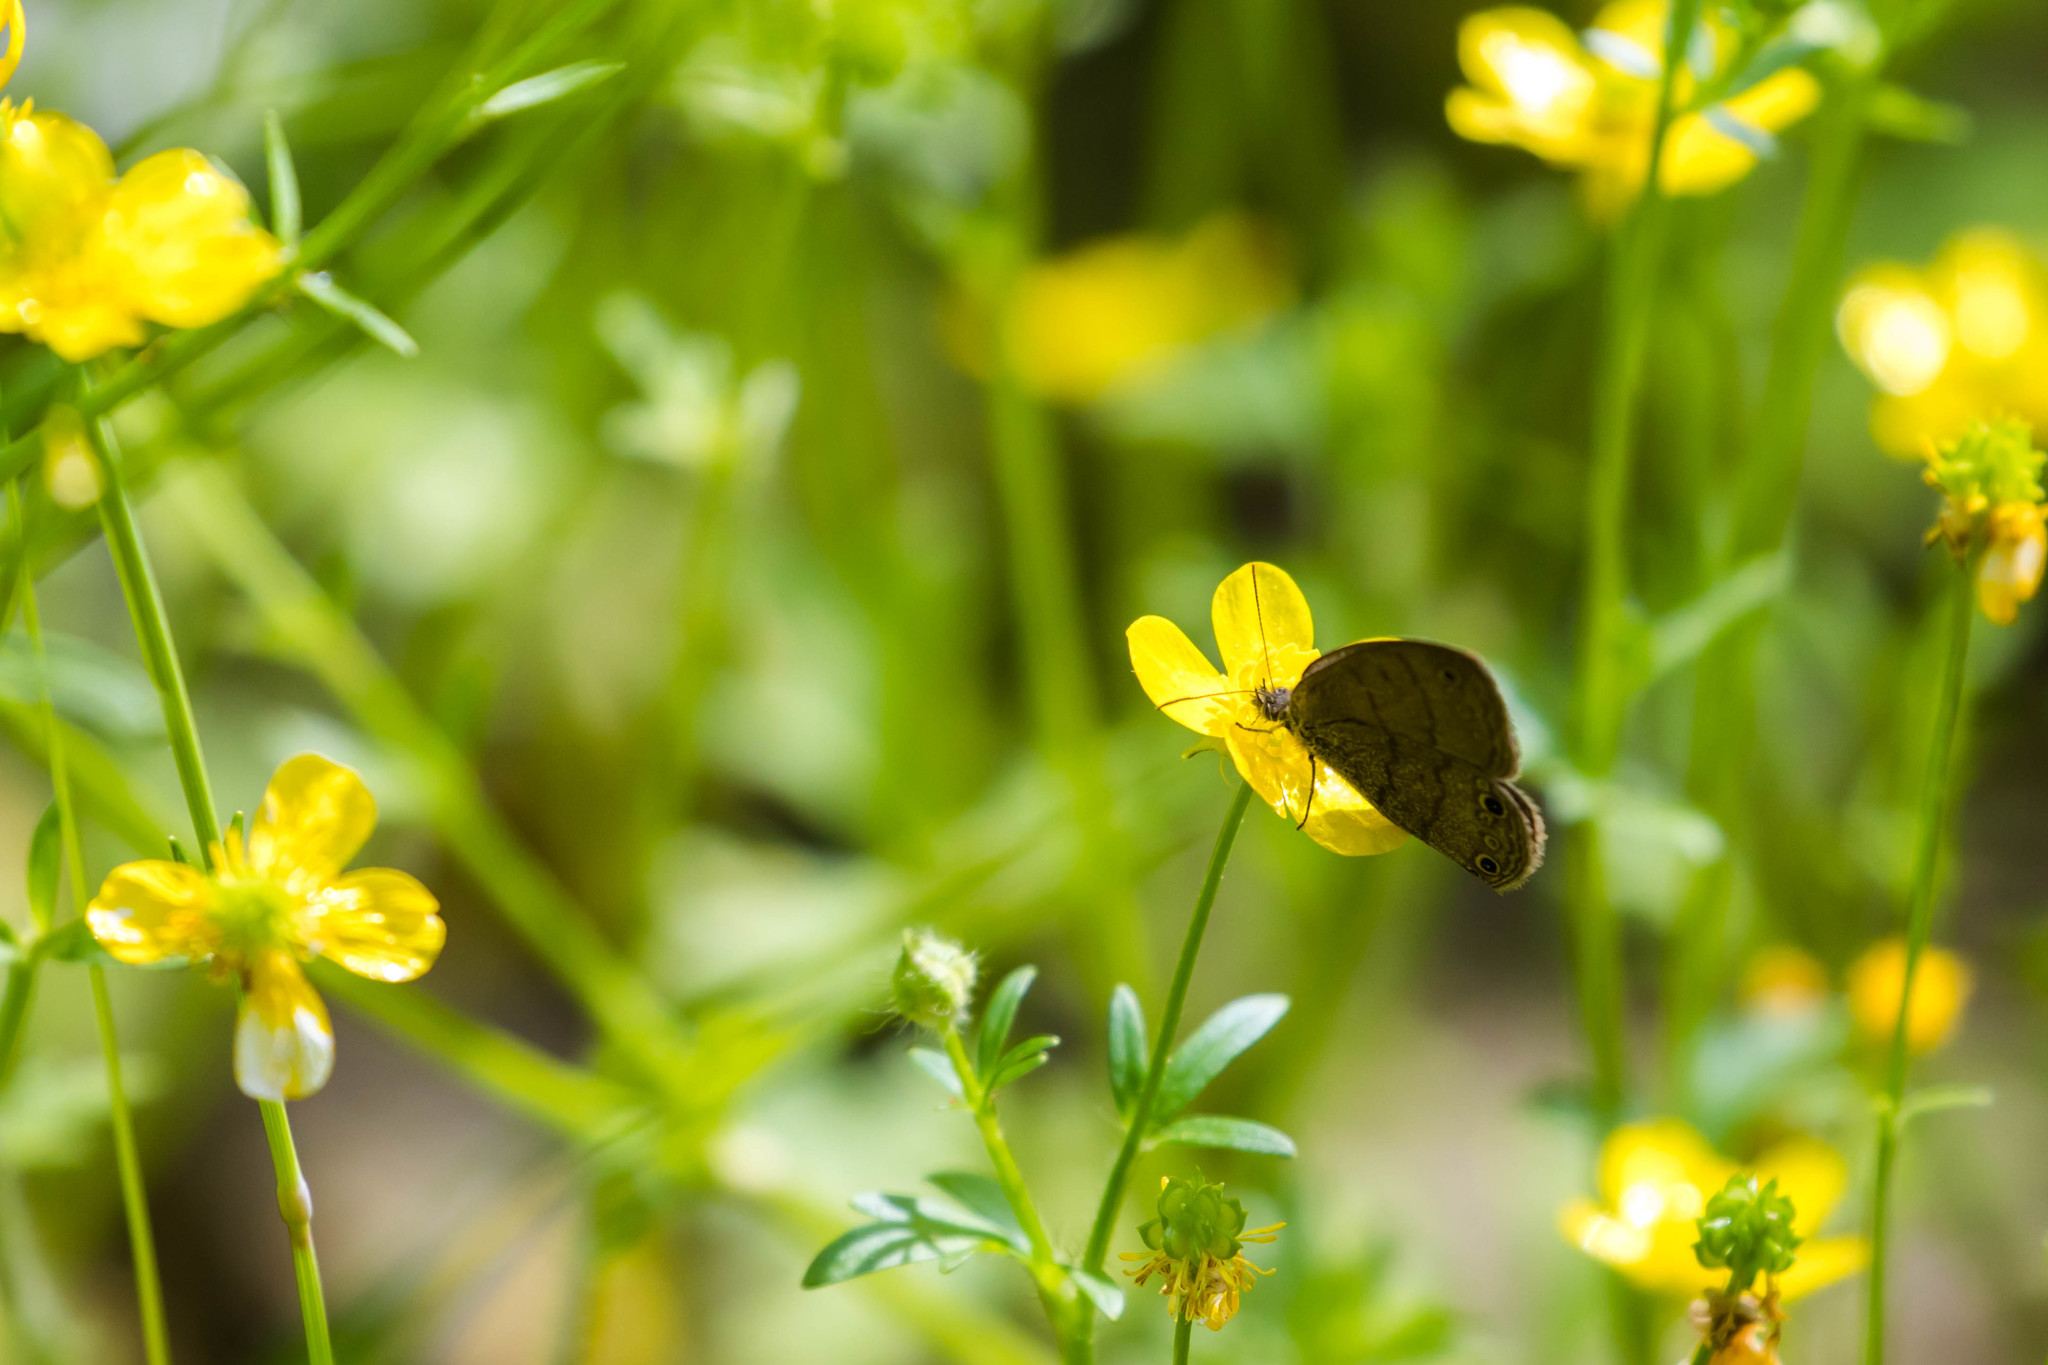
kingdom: Animalia
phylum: Arthropoda
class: Insecta
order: Lepidoptera
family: Nymphalidae
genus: Hermeuptychia
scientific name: Hermeuptychia hermes
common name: Hermes satyr
